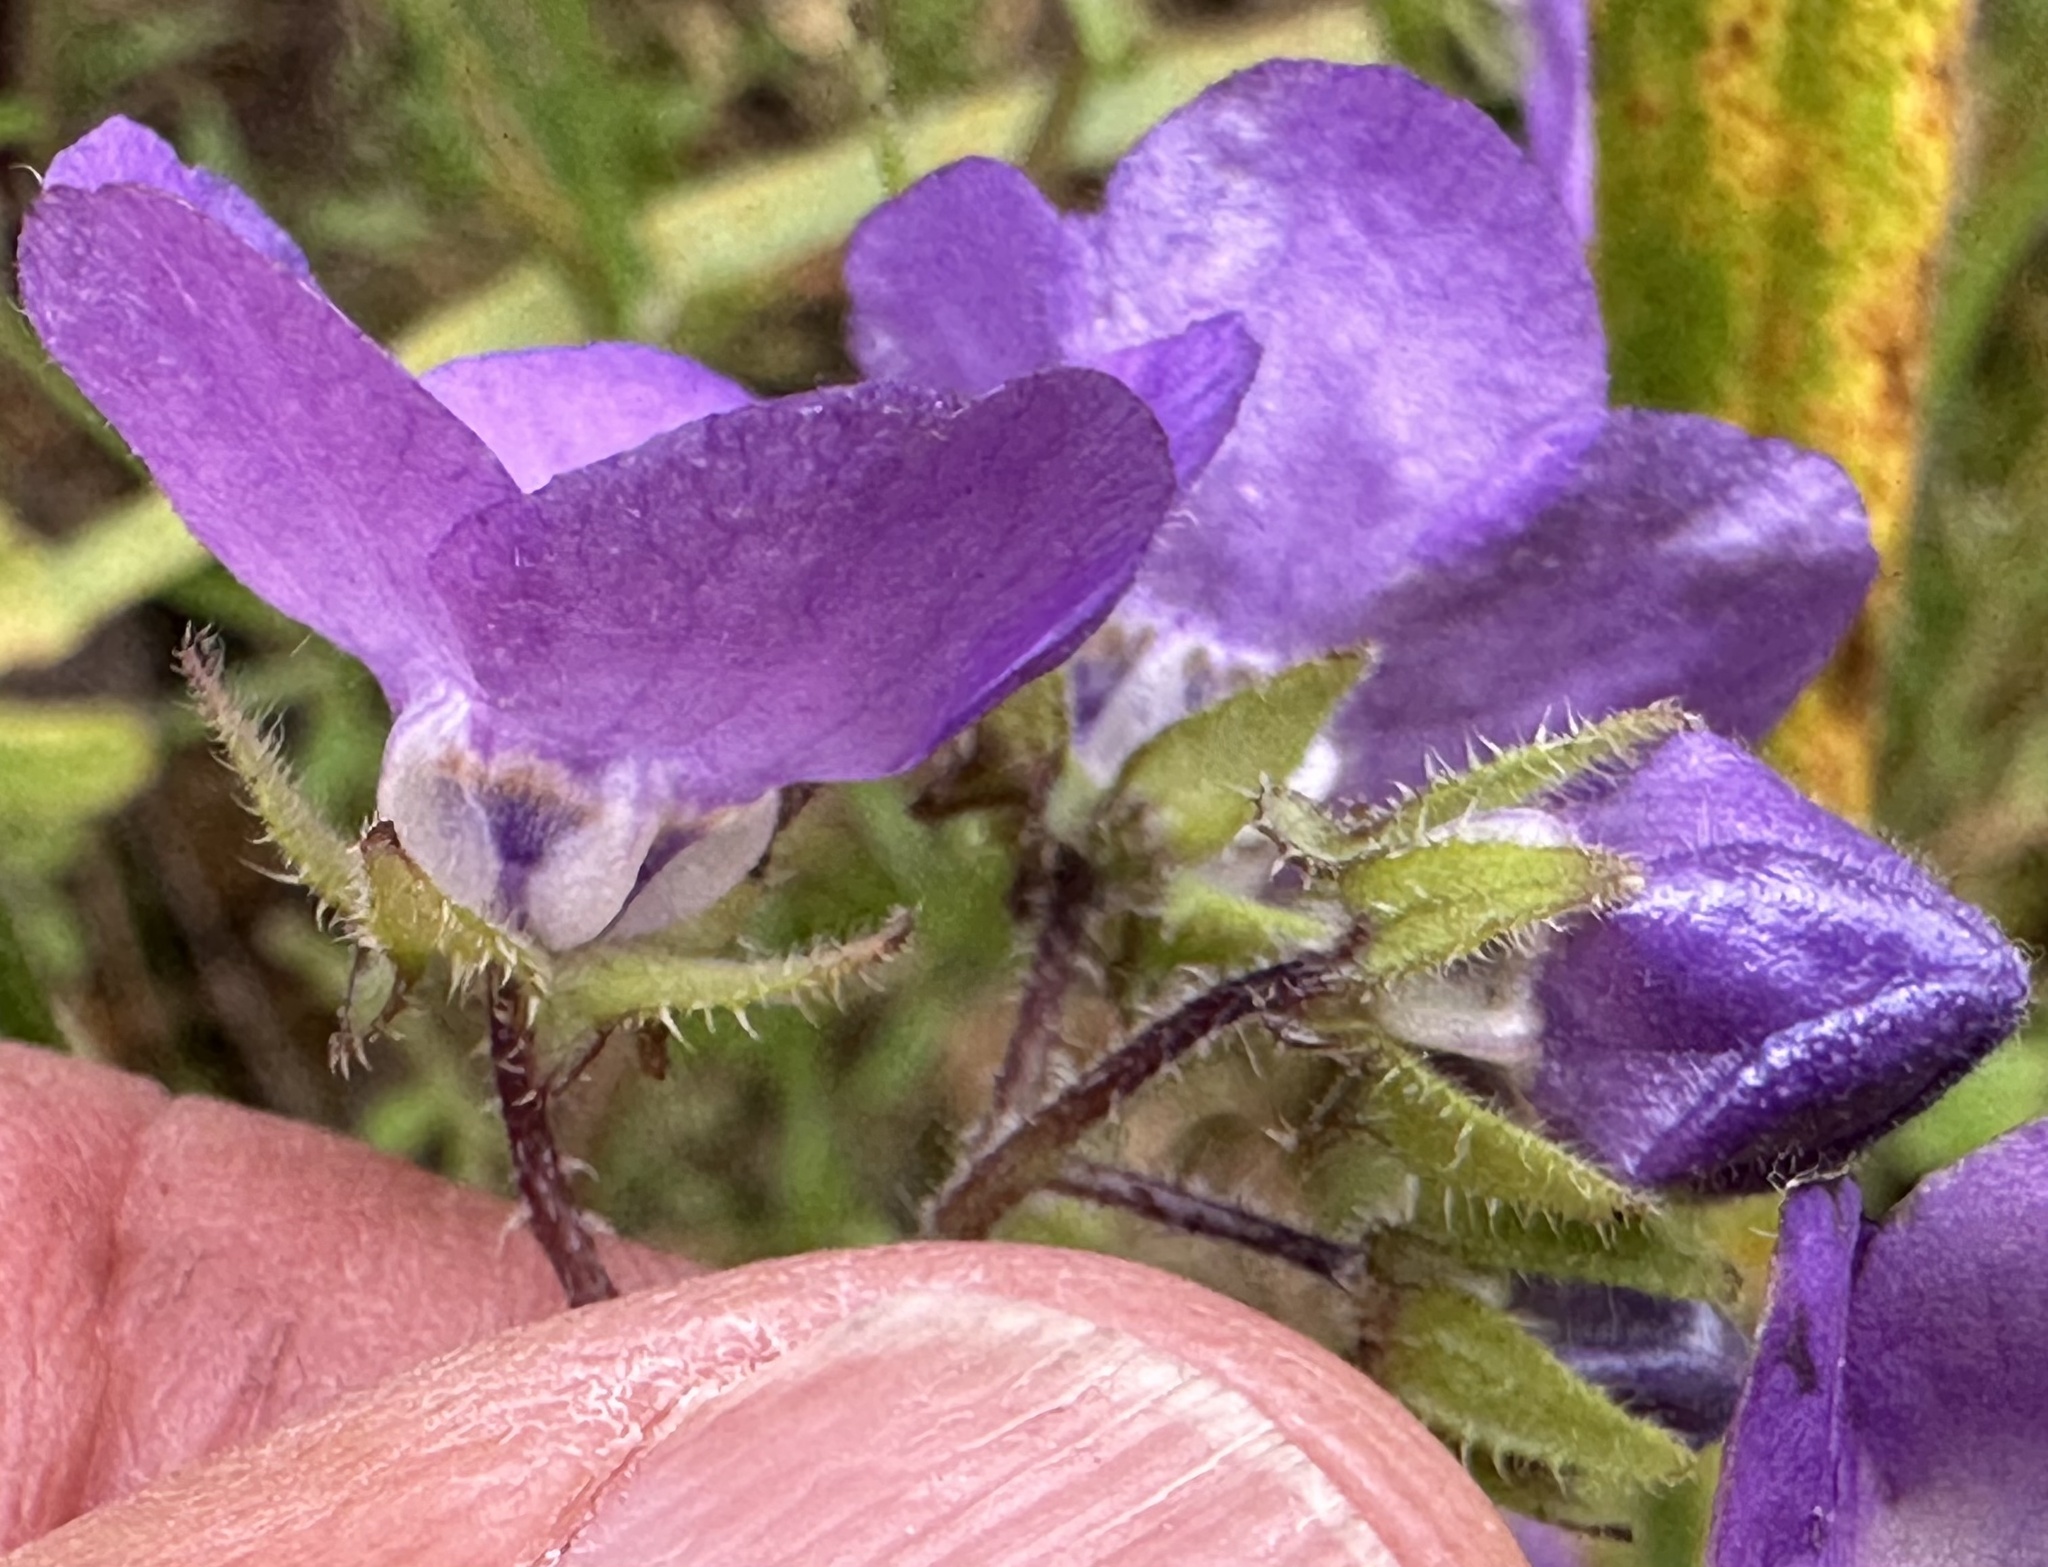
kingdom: Plantae
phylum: Tracheophyta
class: Magnoliopsida
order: Boraginales
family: Hydrophyllaceae
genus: Pholistoma
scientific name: Pholistoma auritum
